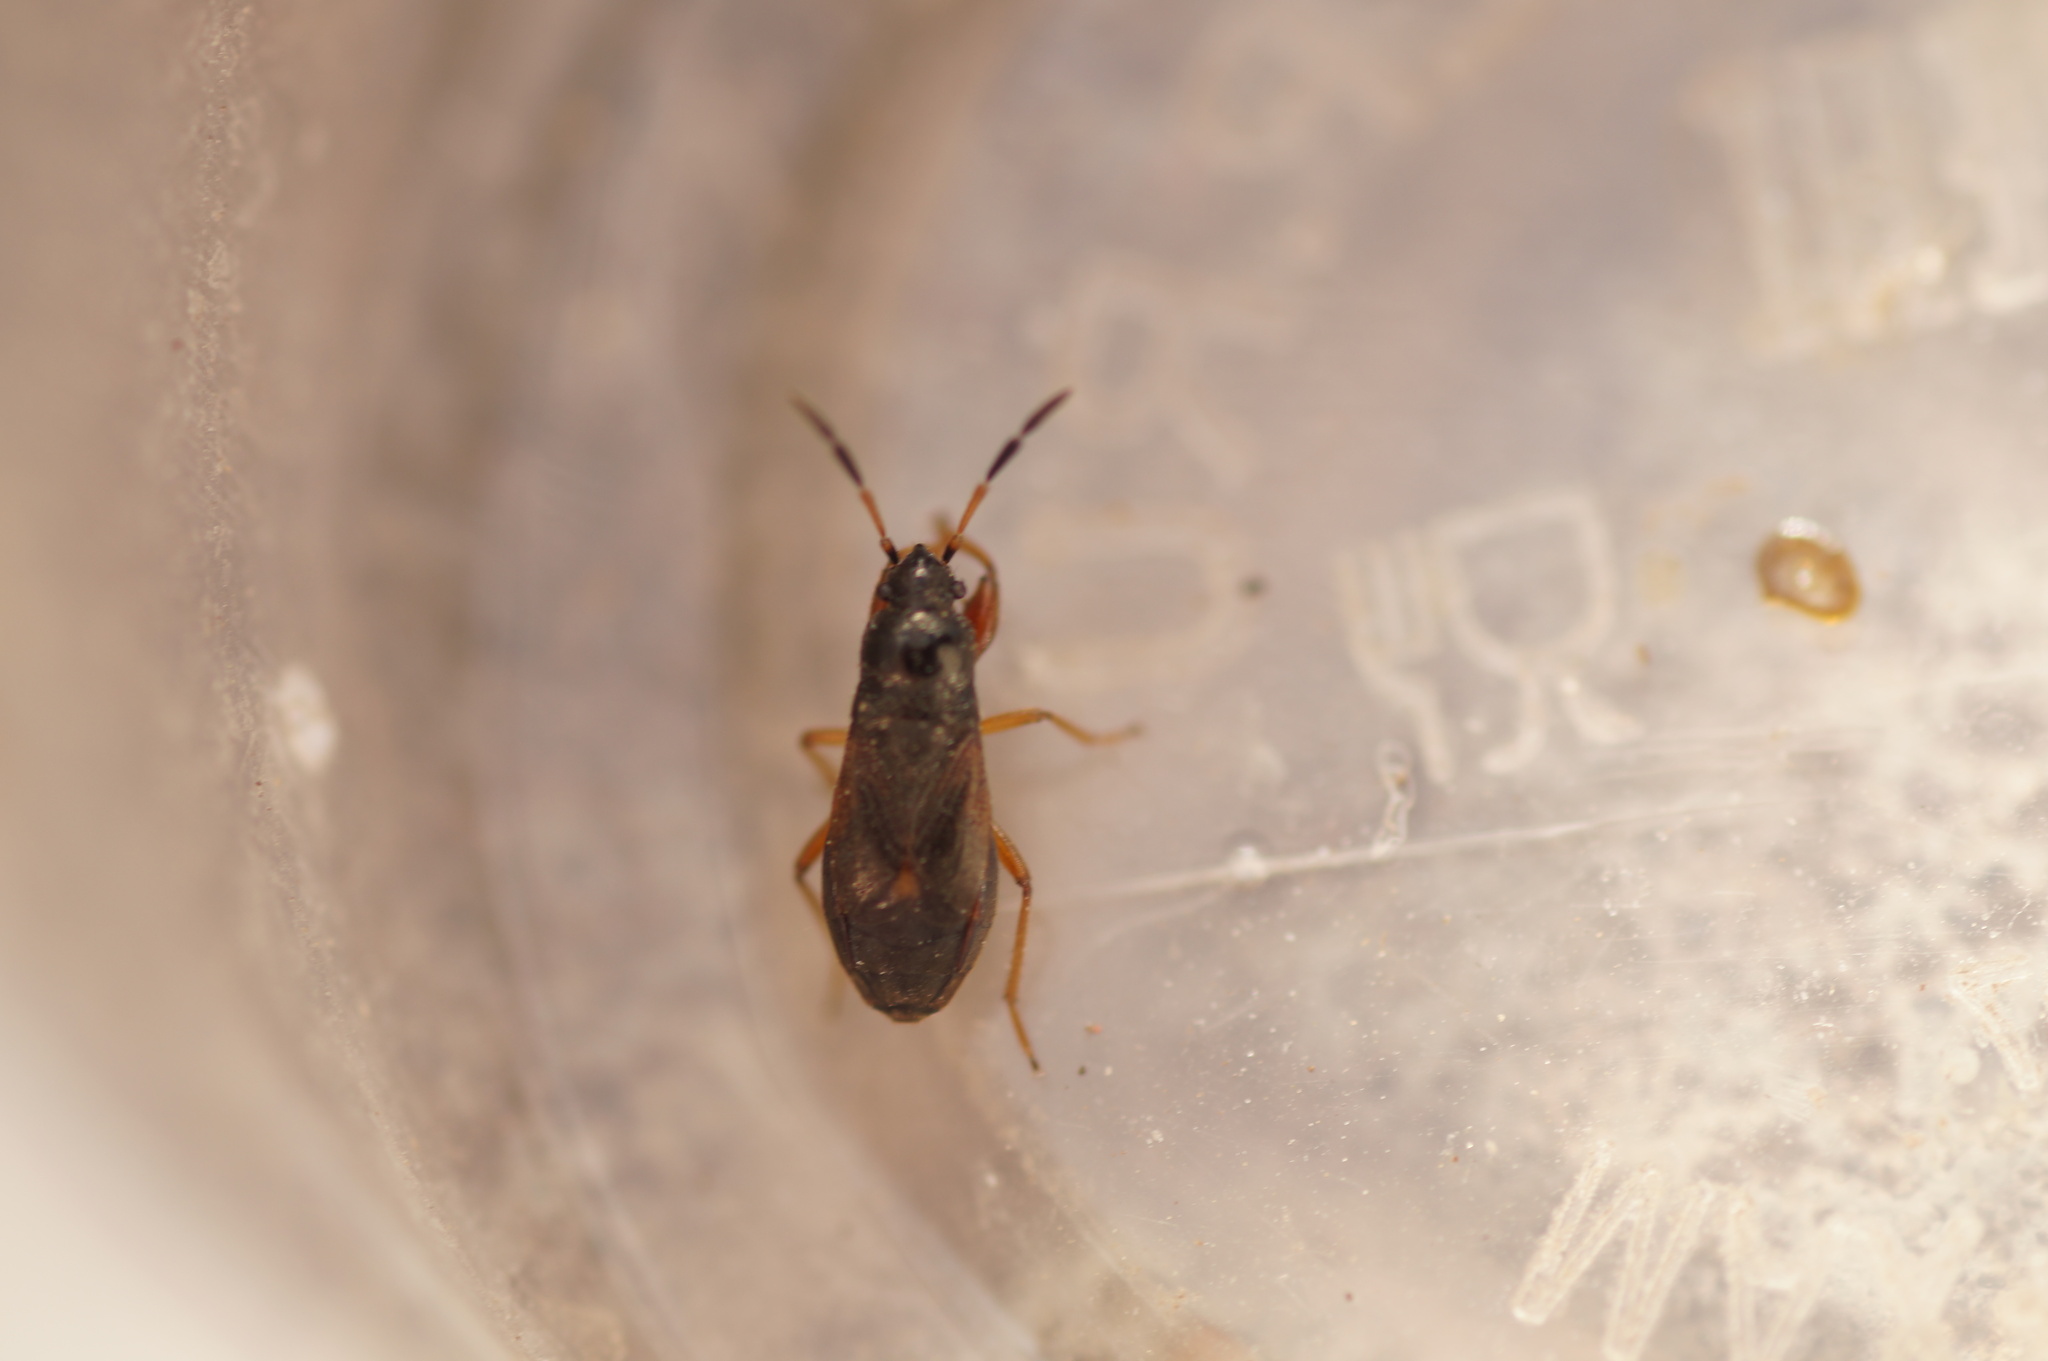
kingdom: Animalia
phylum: Arthropoda
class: Insecta
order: Hemiptera
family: Rhyparochromidae
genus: Megalonotus
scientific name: Megalonotus antennatus
